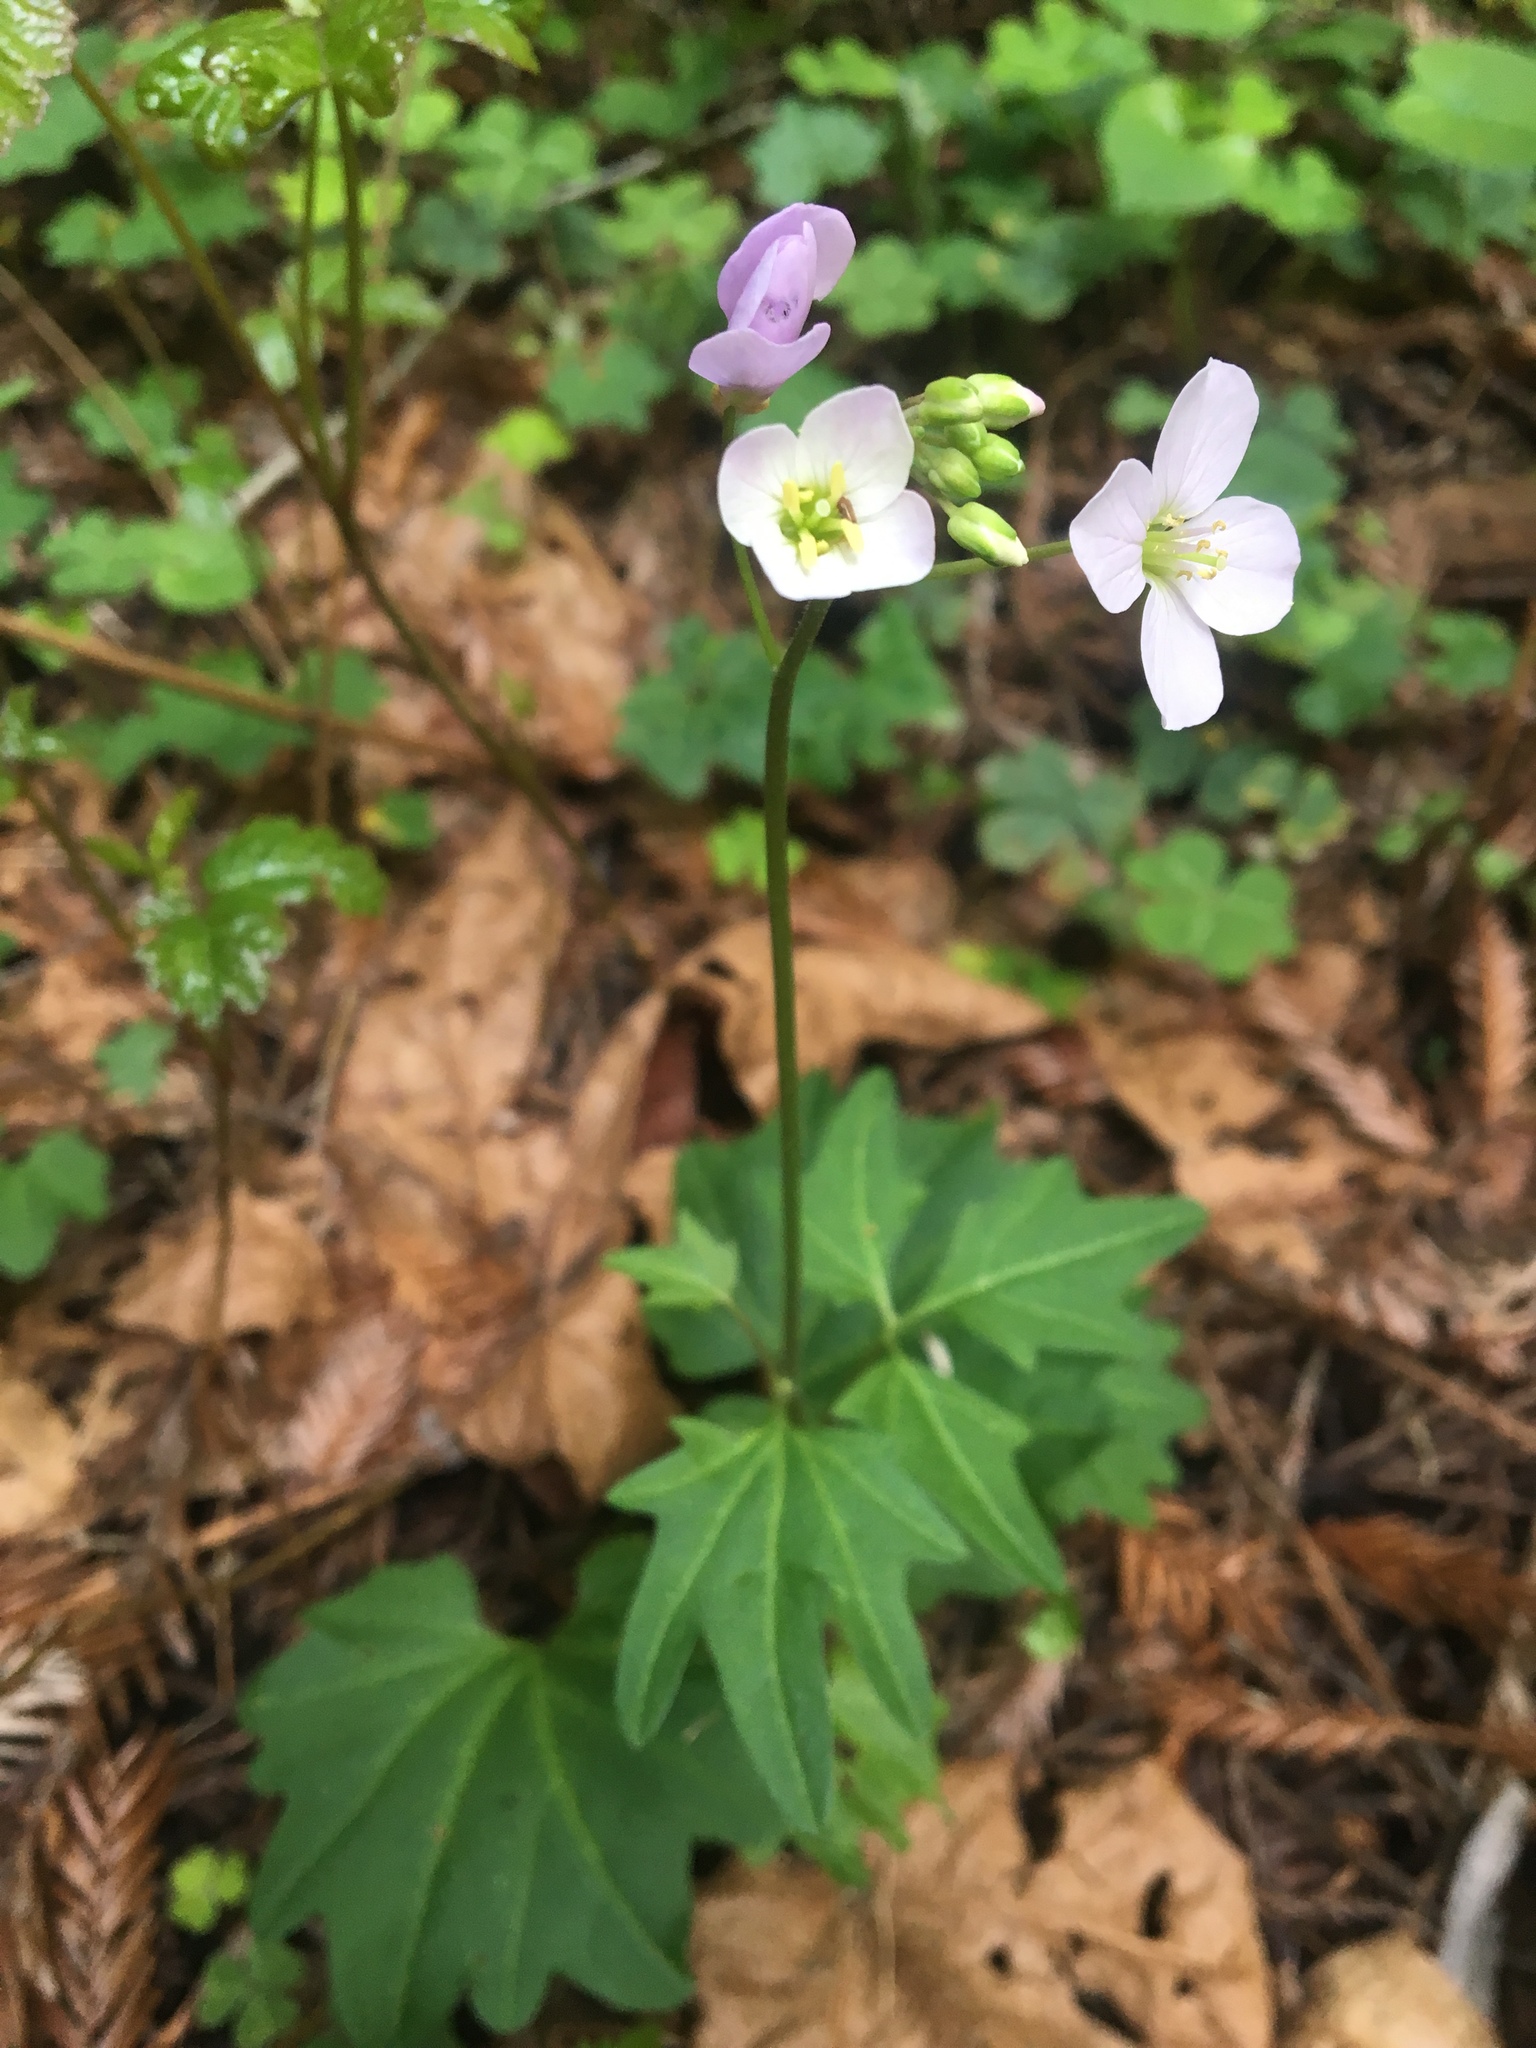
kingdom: Plantae
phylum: Tracheophyta
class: Magnoliopsida
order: Brassicales
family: Brassicaceae
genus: Cardamine
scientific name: Cardamine californica
